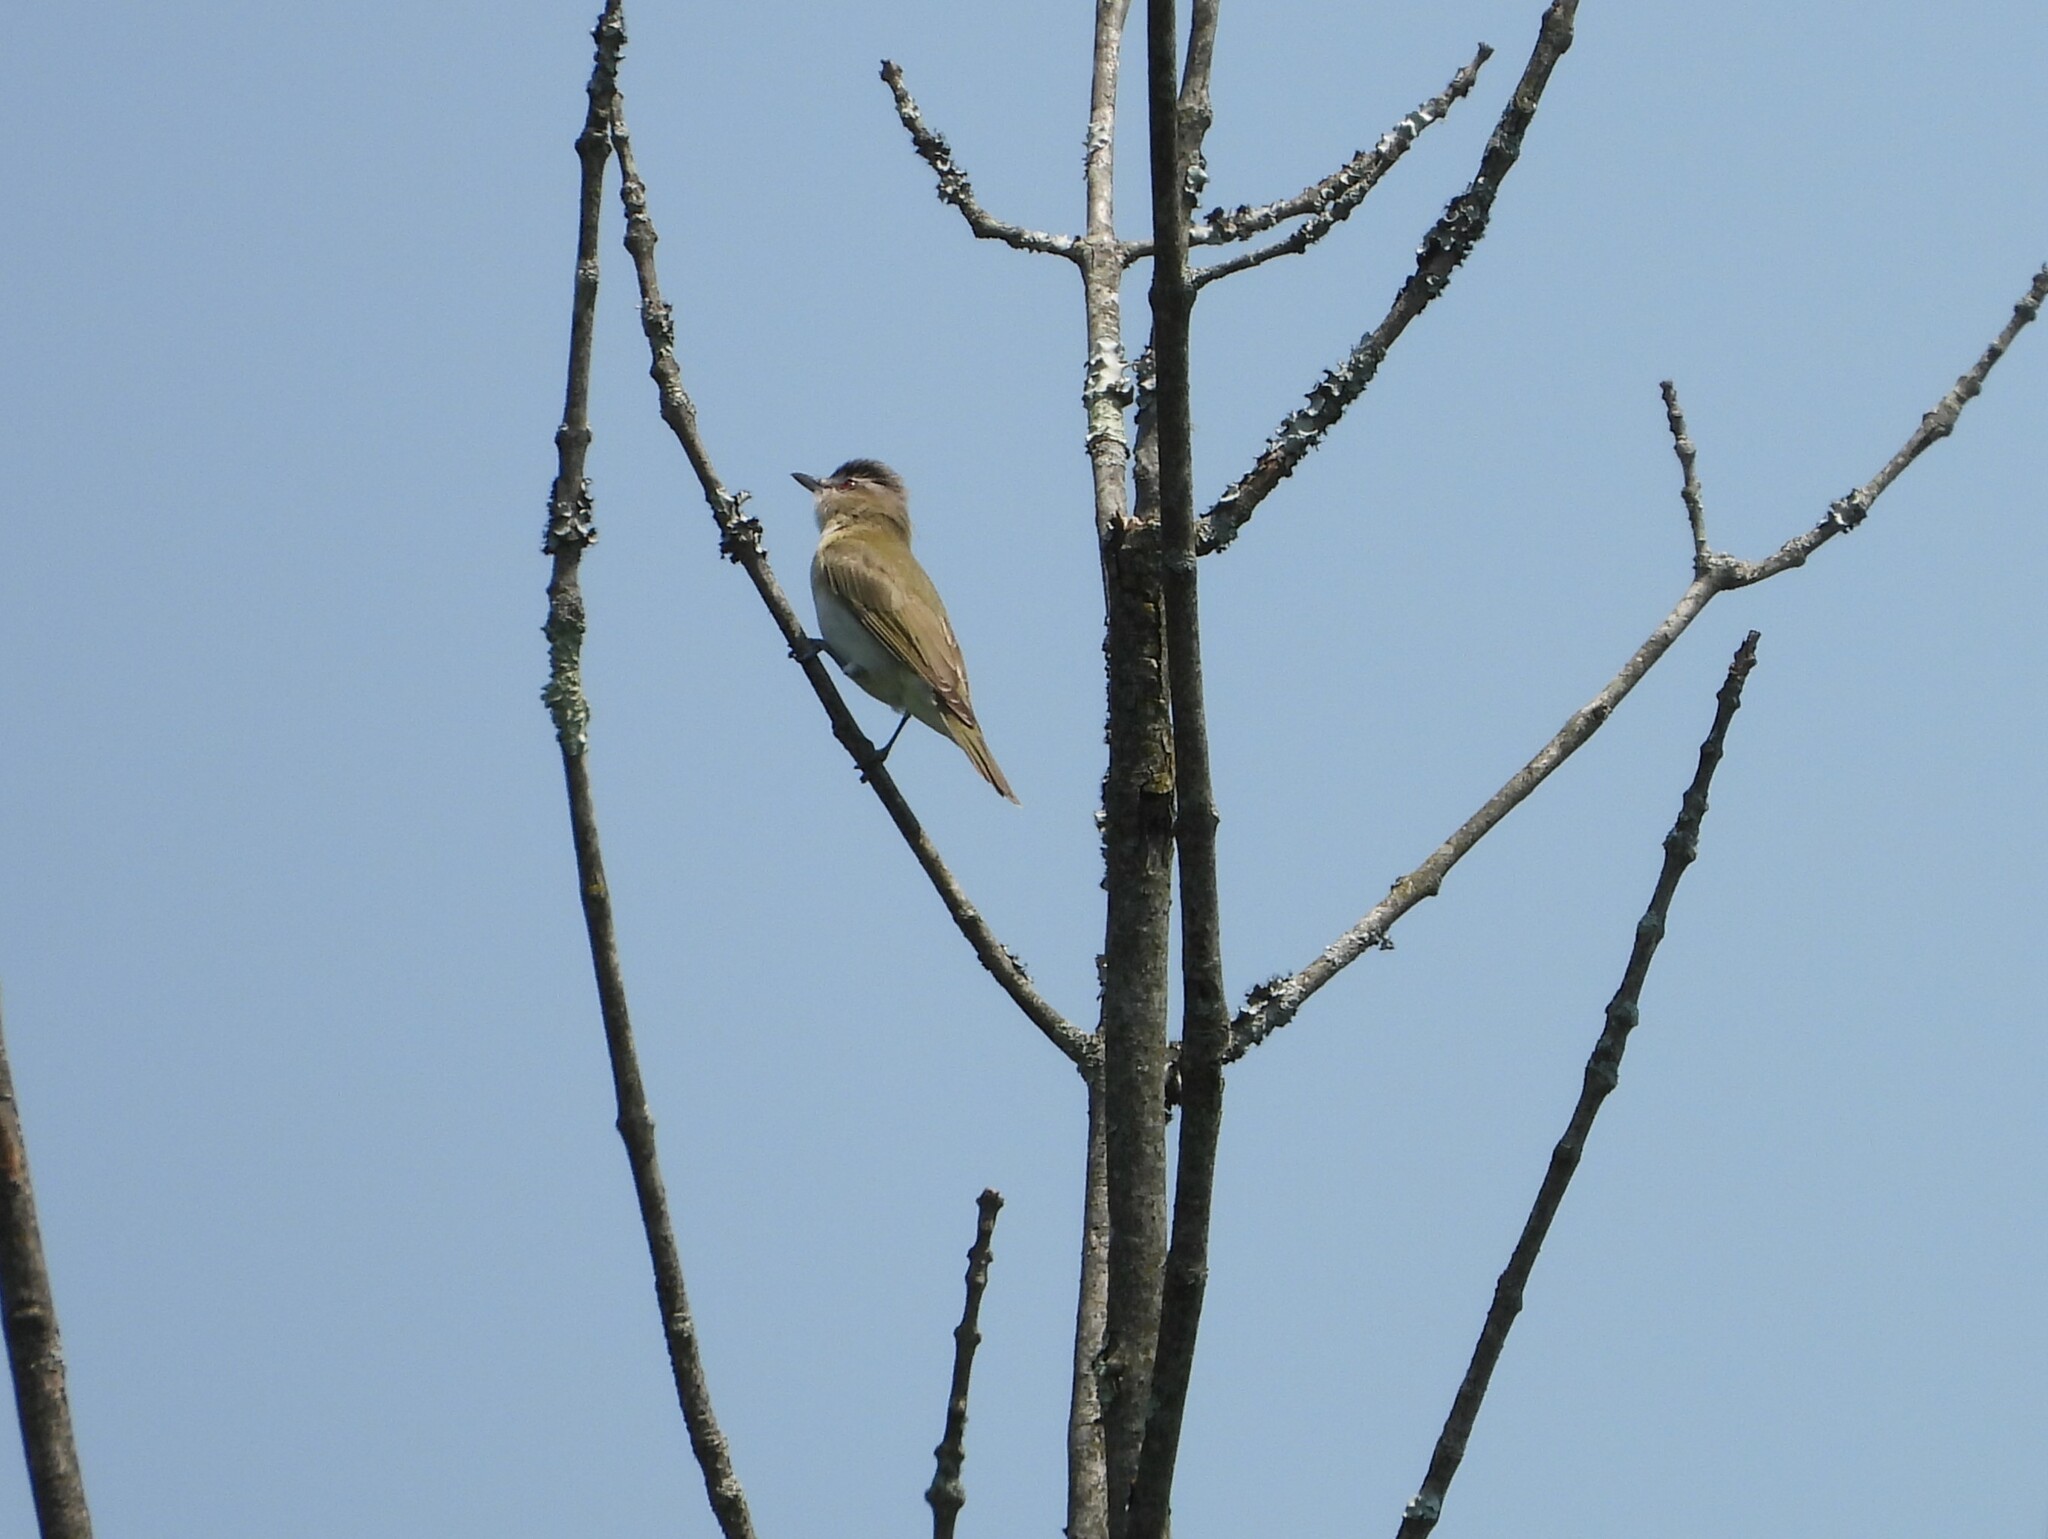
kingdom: Animalia
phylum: Chordata
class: Aves
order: Passeriformes
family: Vireonidae
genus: Vireo
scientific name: Vireo olivaceus
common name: Red-eyed vireo
